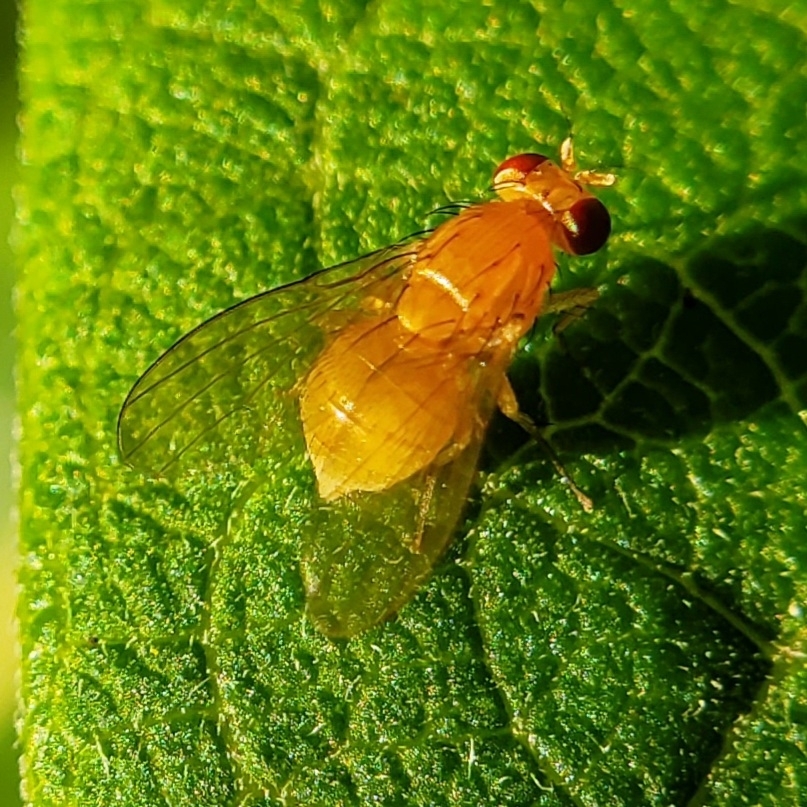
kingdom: Animalia
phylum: Arthropoda
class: Insecta
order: Diptera
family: Lauxaniidae
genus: Neogriphoneura
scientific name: Neogriphoneura sordida
